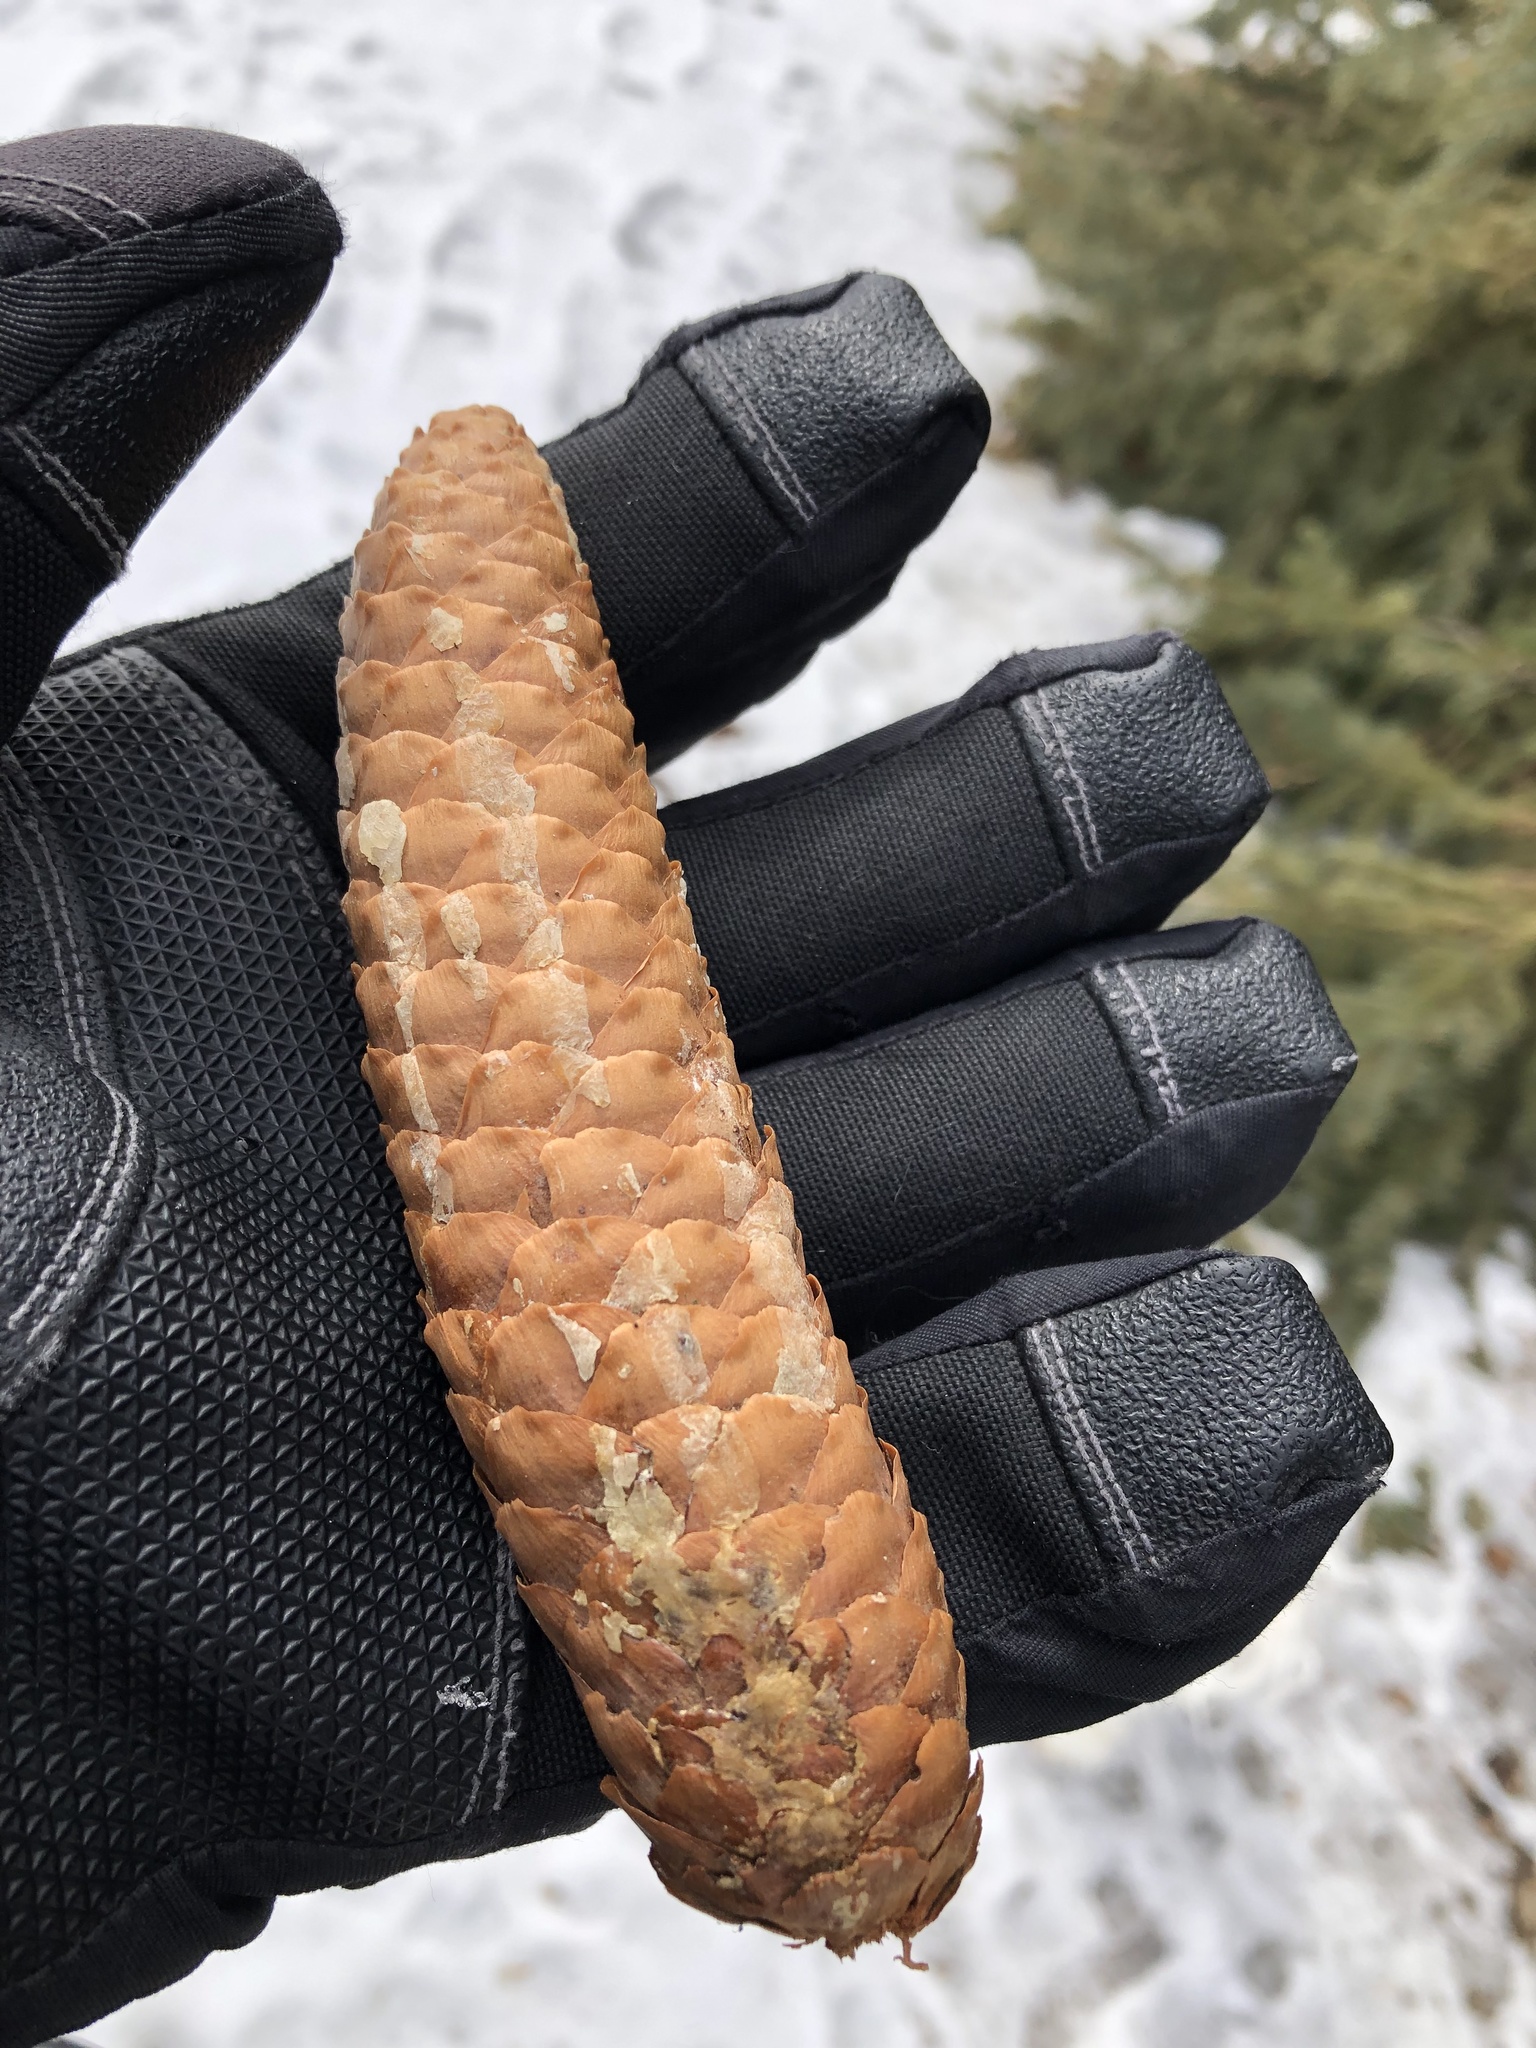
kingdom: Plantae
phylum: Tracheophyta
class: Pinopsida
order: Pinales
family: Pinaceae
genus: Picea
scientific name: Picea abies
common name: Norway spruce
